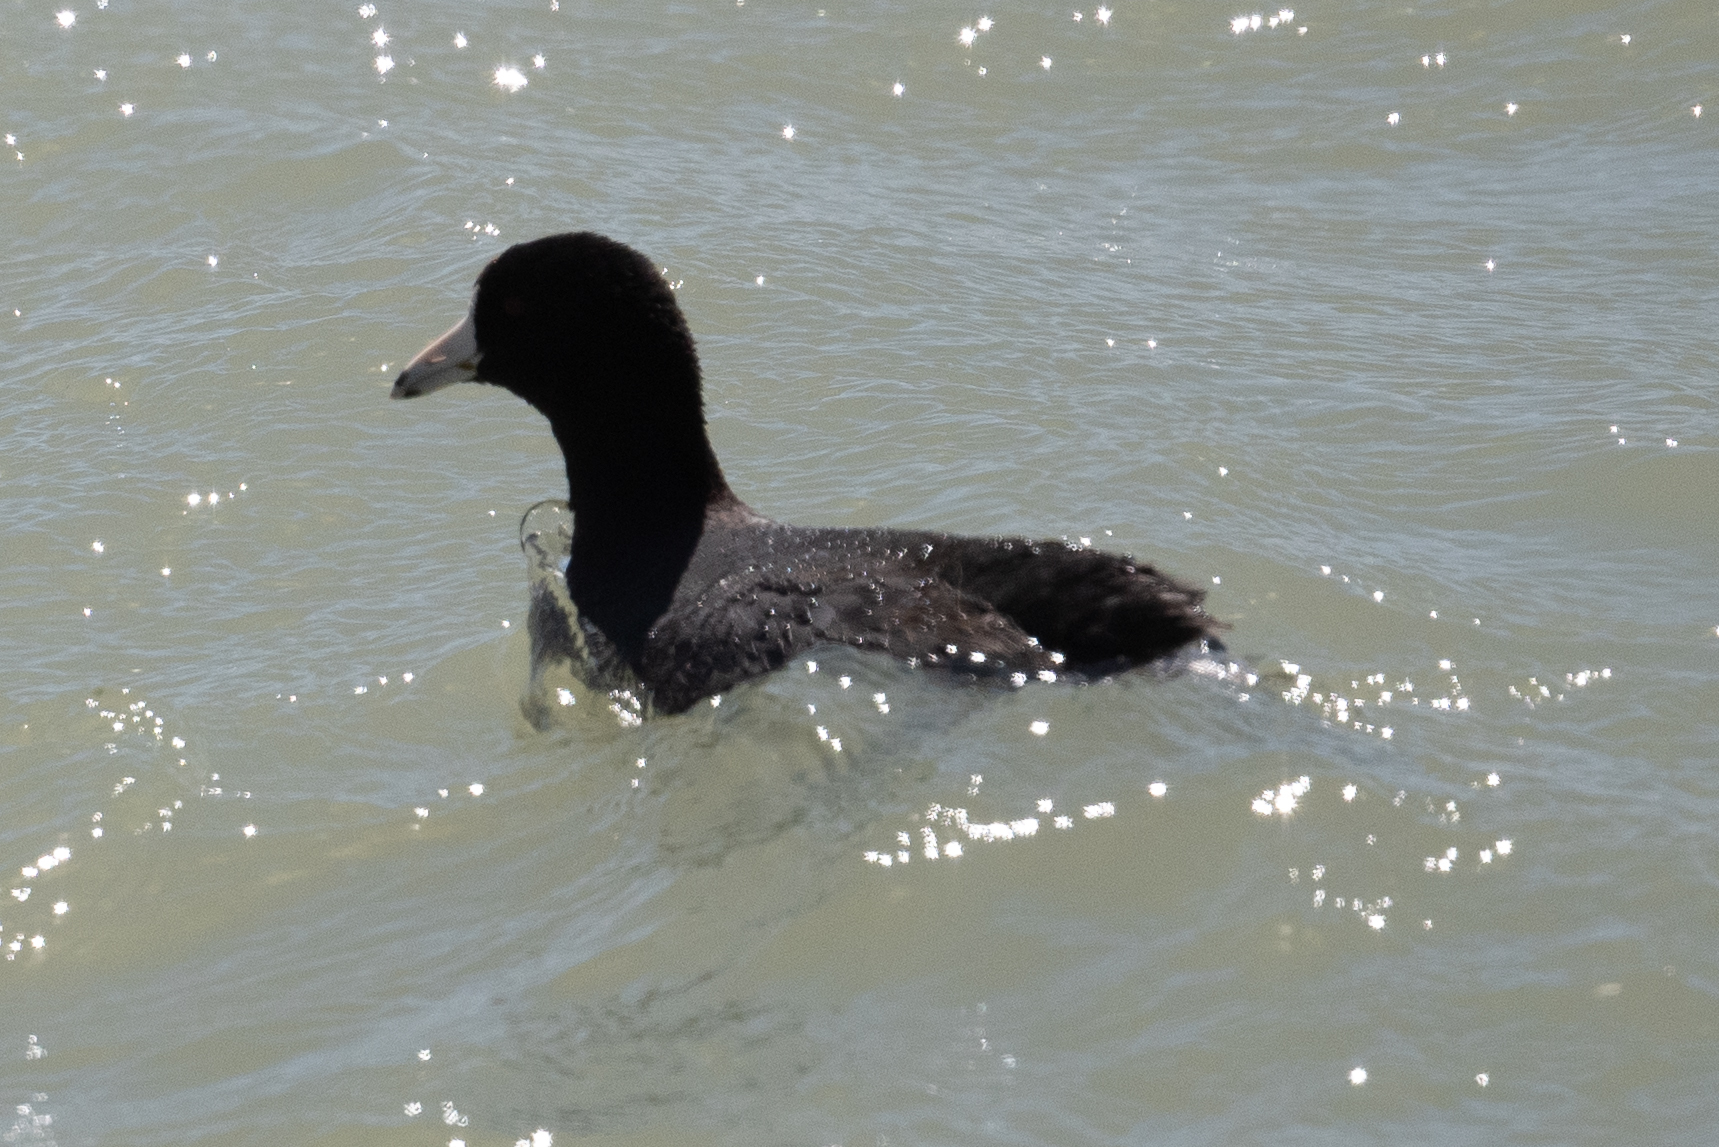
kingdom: Animalia
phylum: Chordata
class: Aves
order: Gruiformes
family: Rallidae
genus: Fulica
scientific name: Fulica americana
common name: American coot
